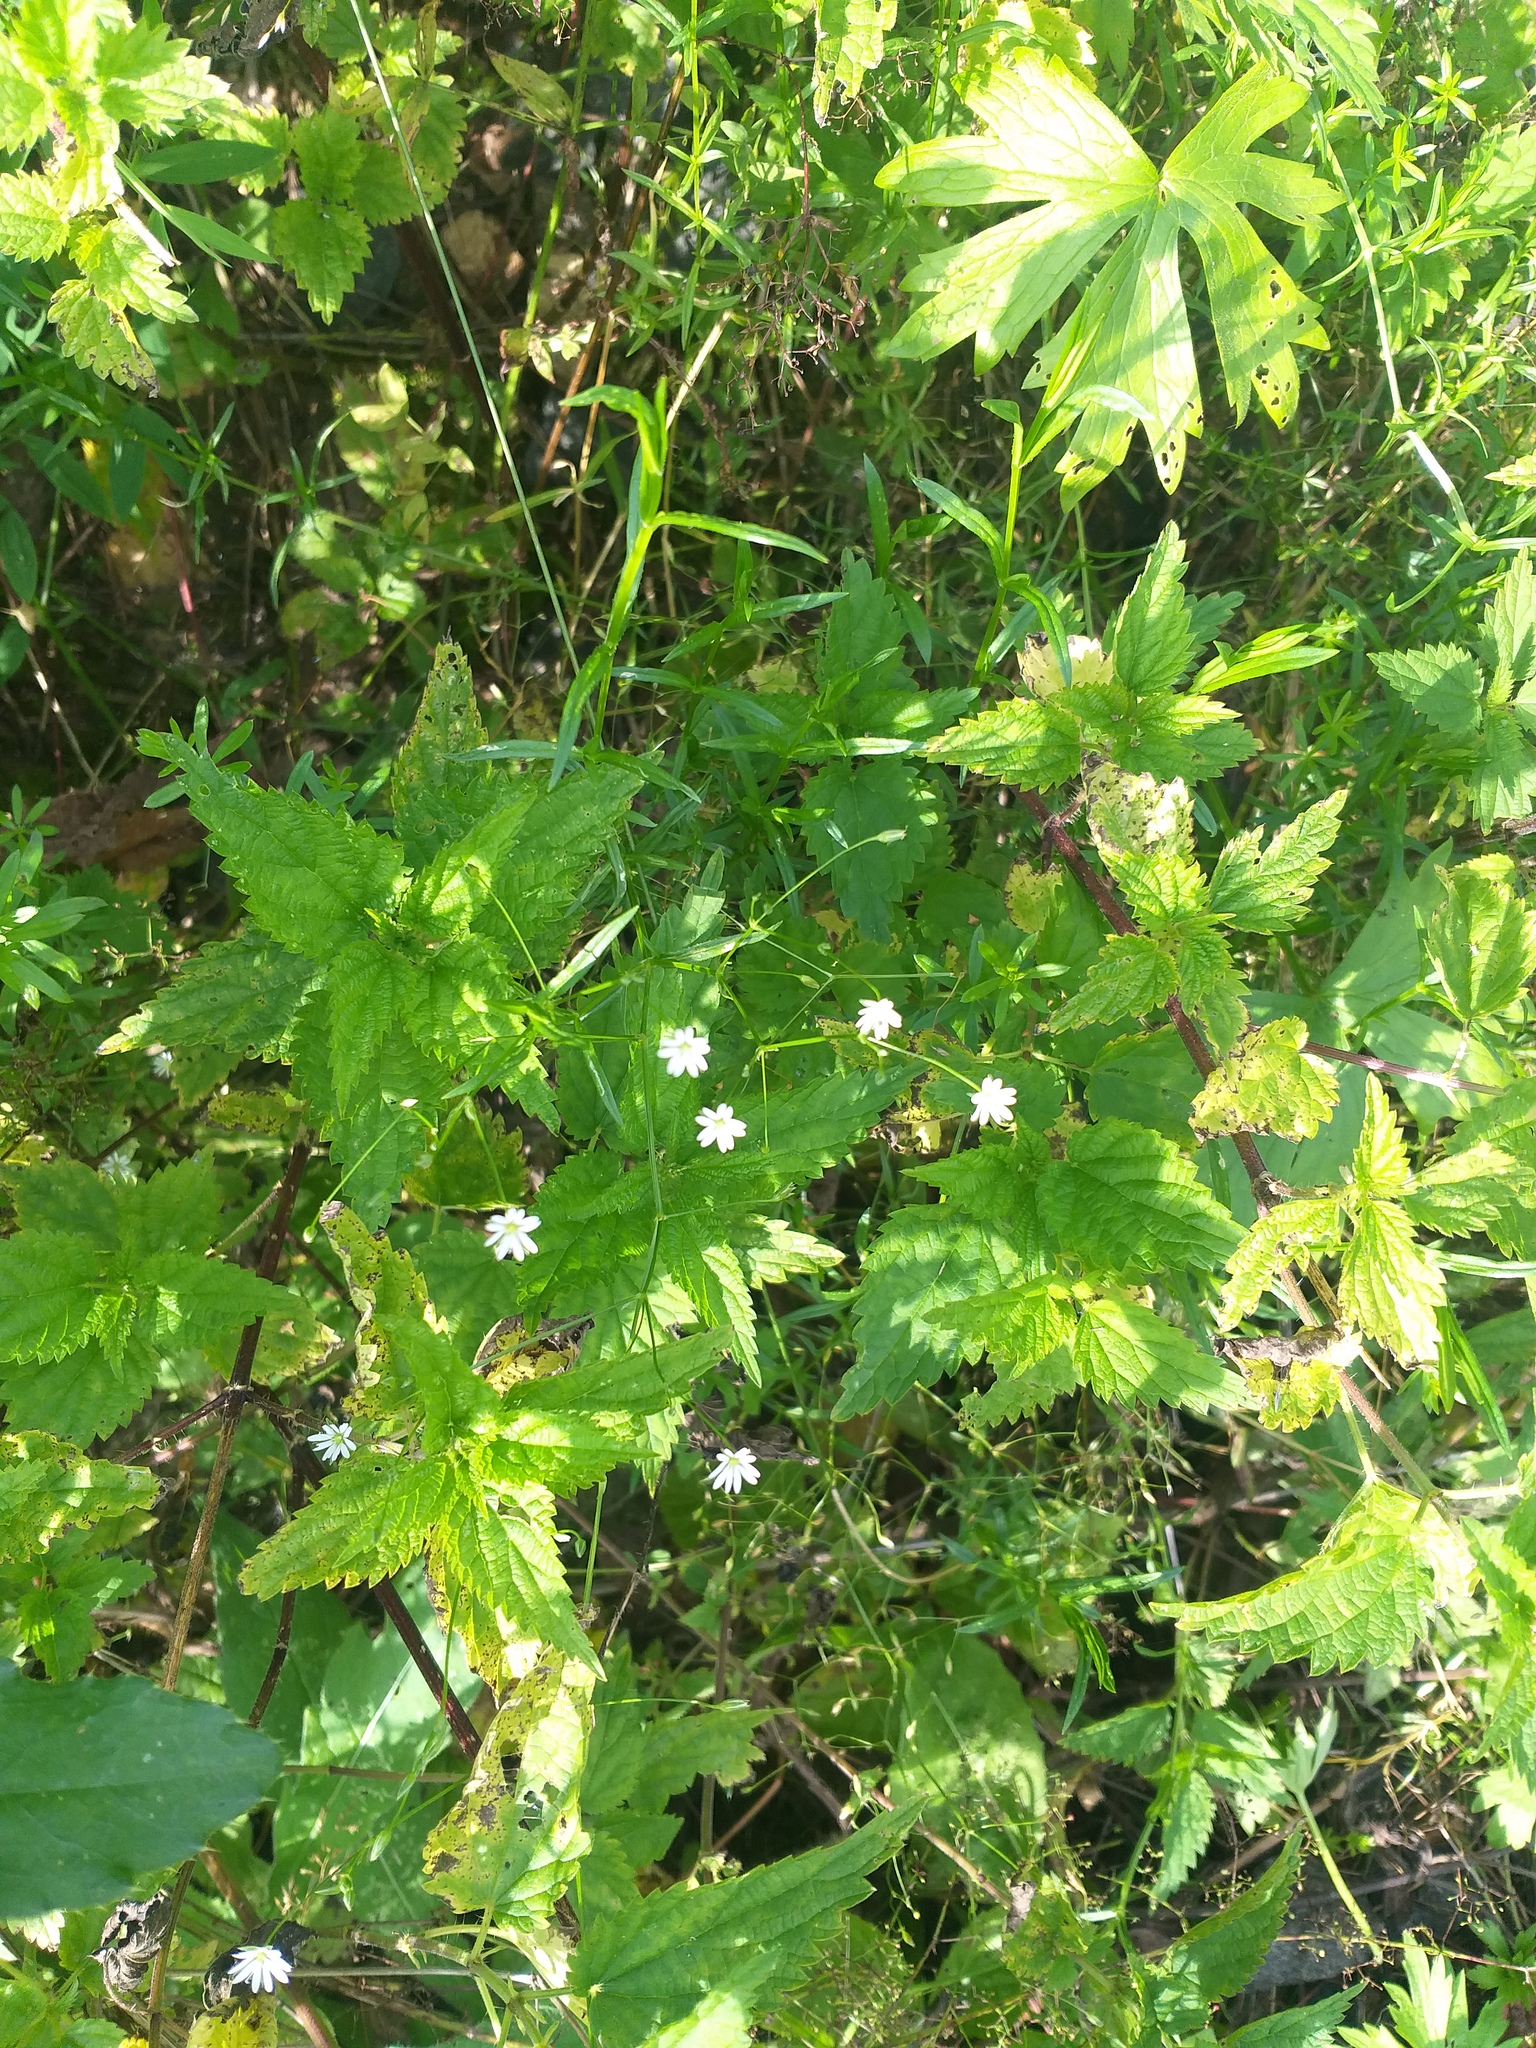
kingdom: Plantae
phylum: Tracheophyta
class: Magnoliopsida
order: Caryophyllales
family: Caryophyllaceae
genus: Stellaria
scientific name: Stellaria graminea
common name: Grass-like starwort
